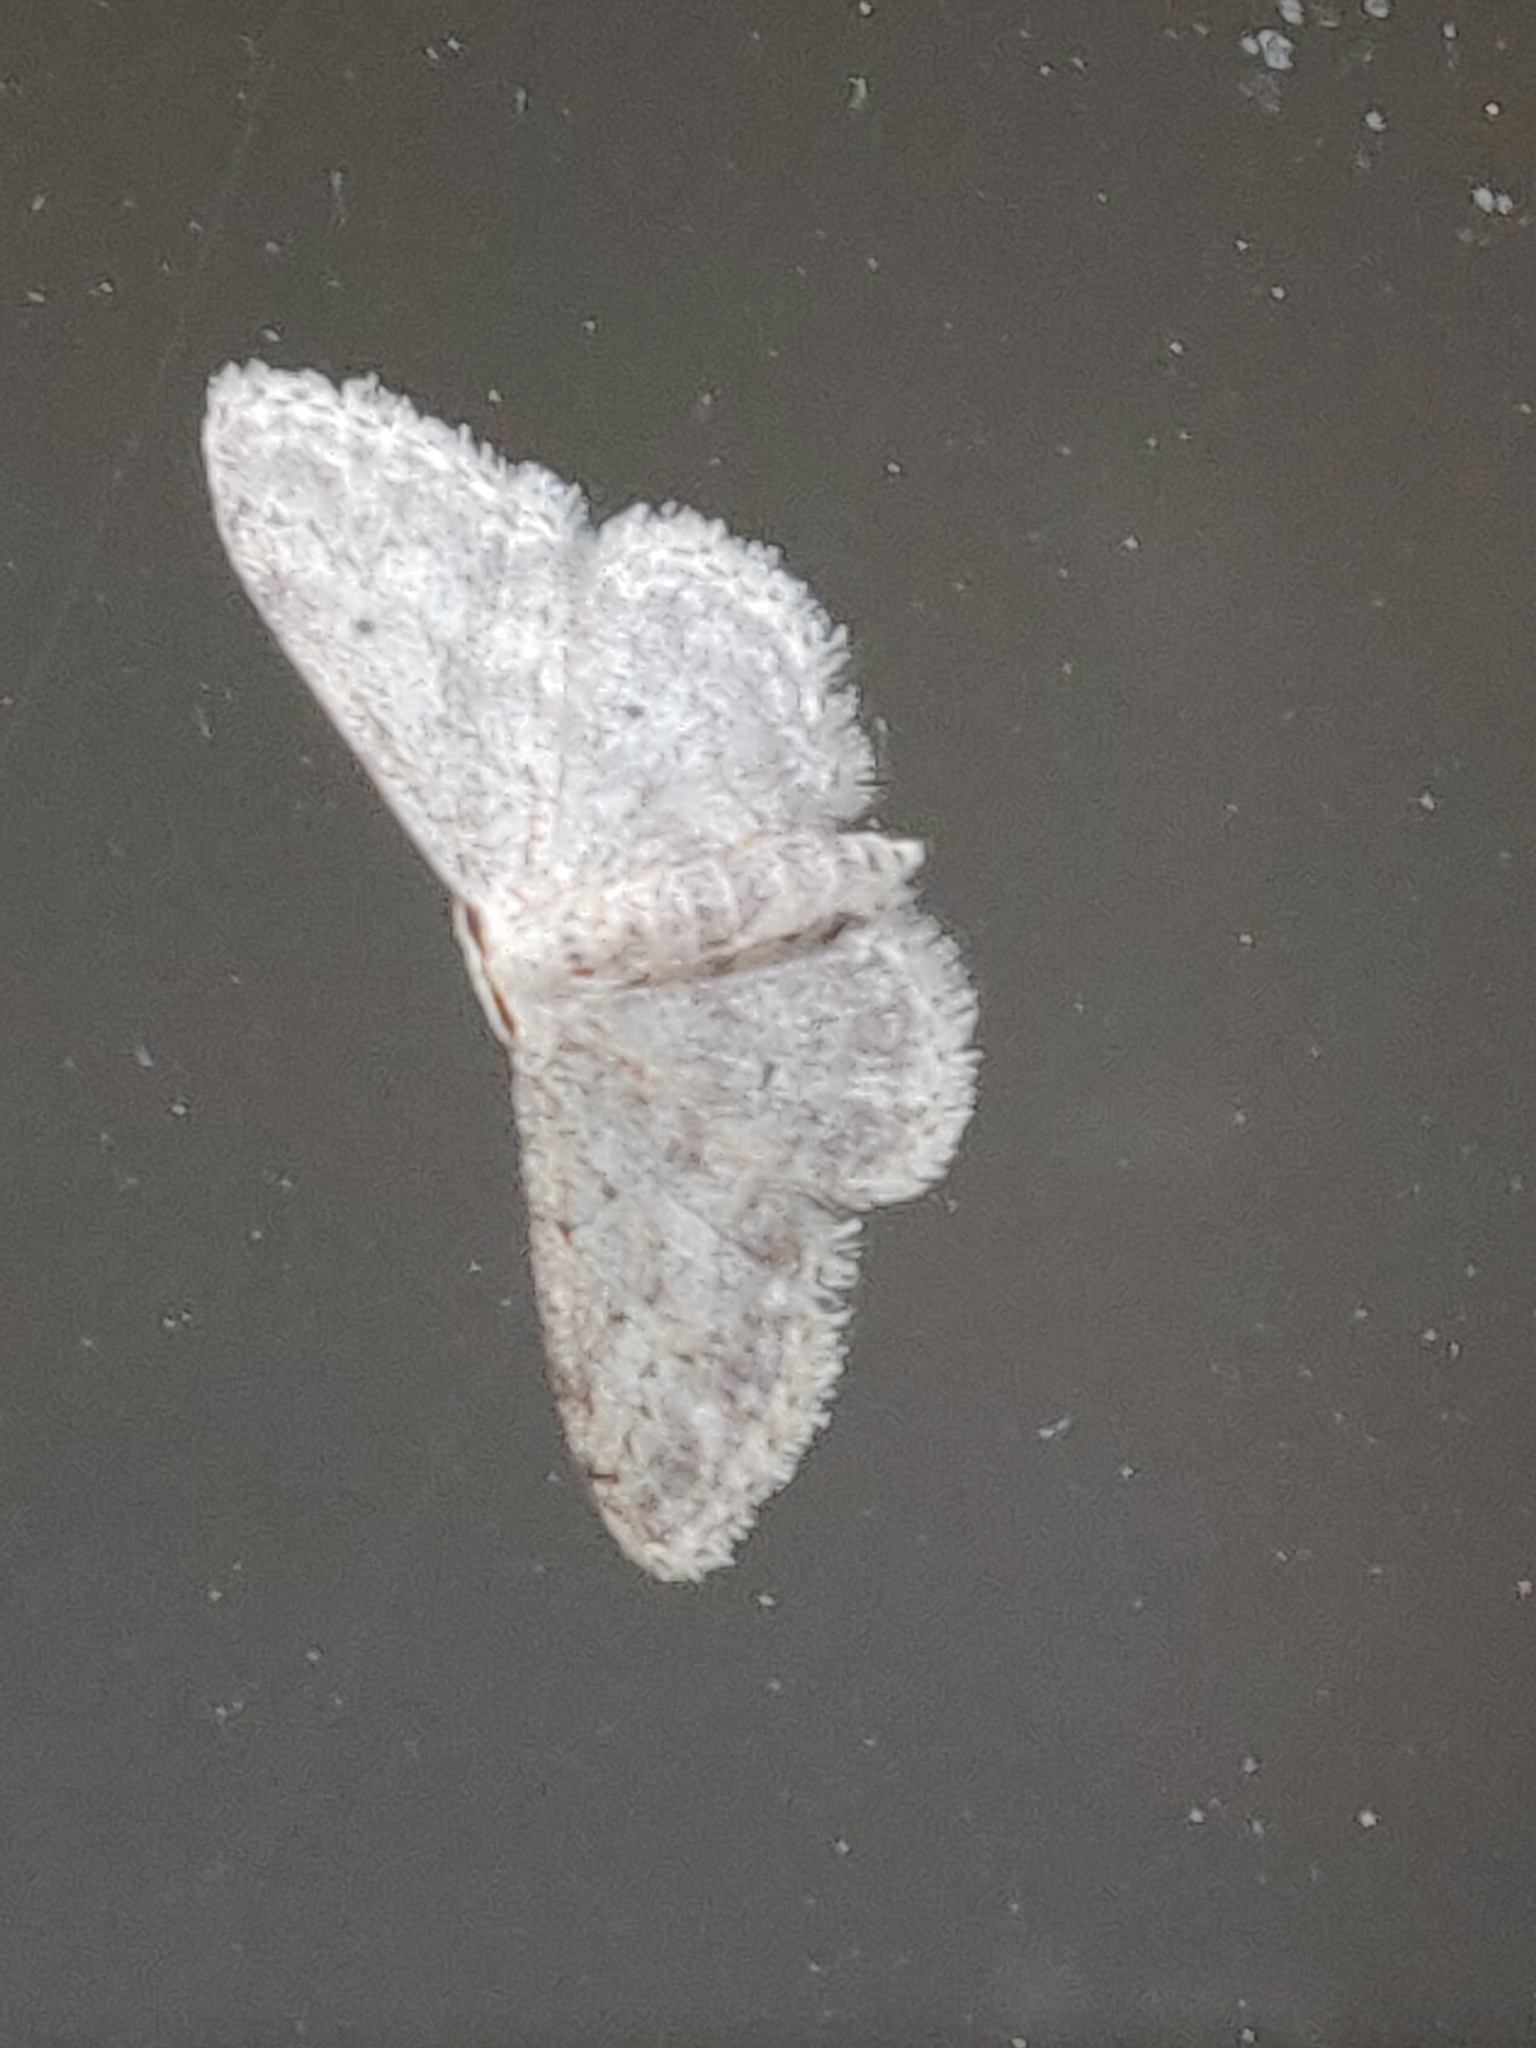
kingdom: Animalia
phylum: Arthropoda
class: Insecta
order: Lepidoptera
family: Geometridae
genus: Idaea
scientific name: Idaea seriata
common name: Small dusty wave
